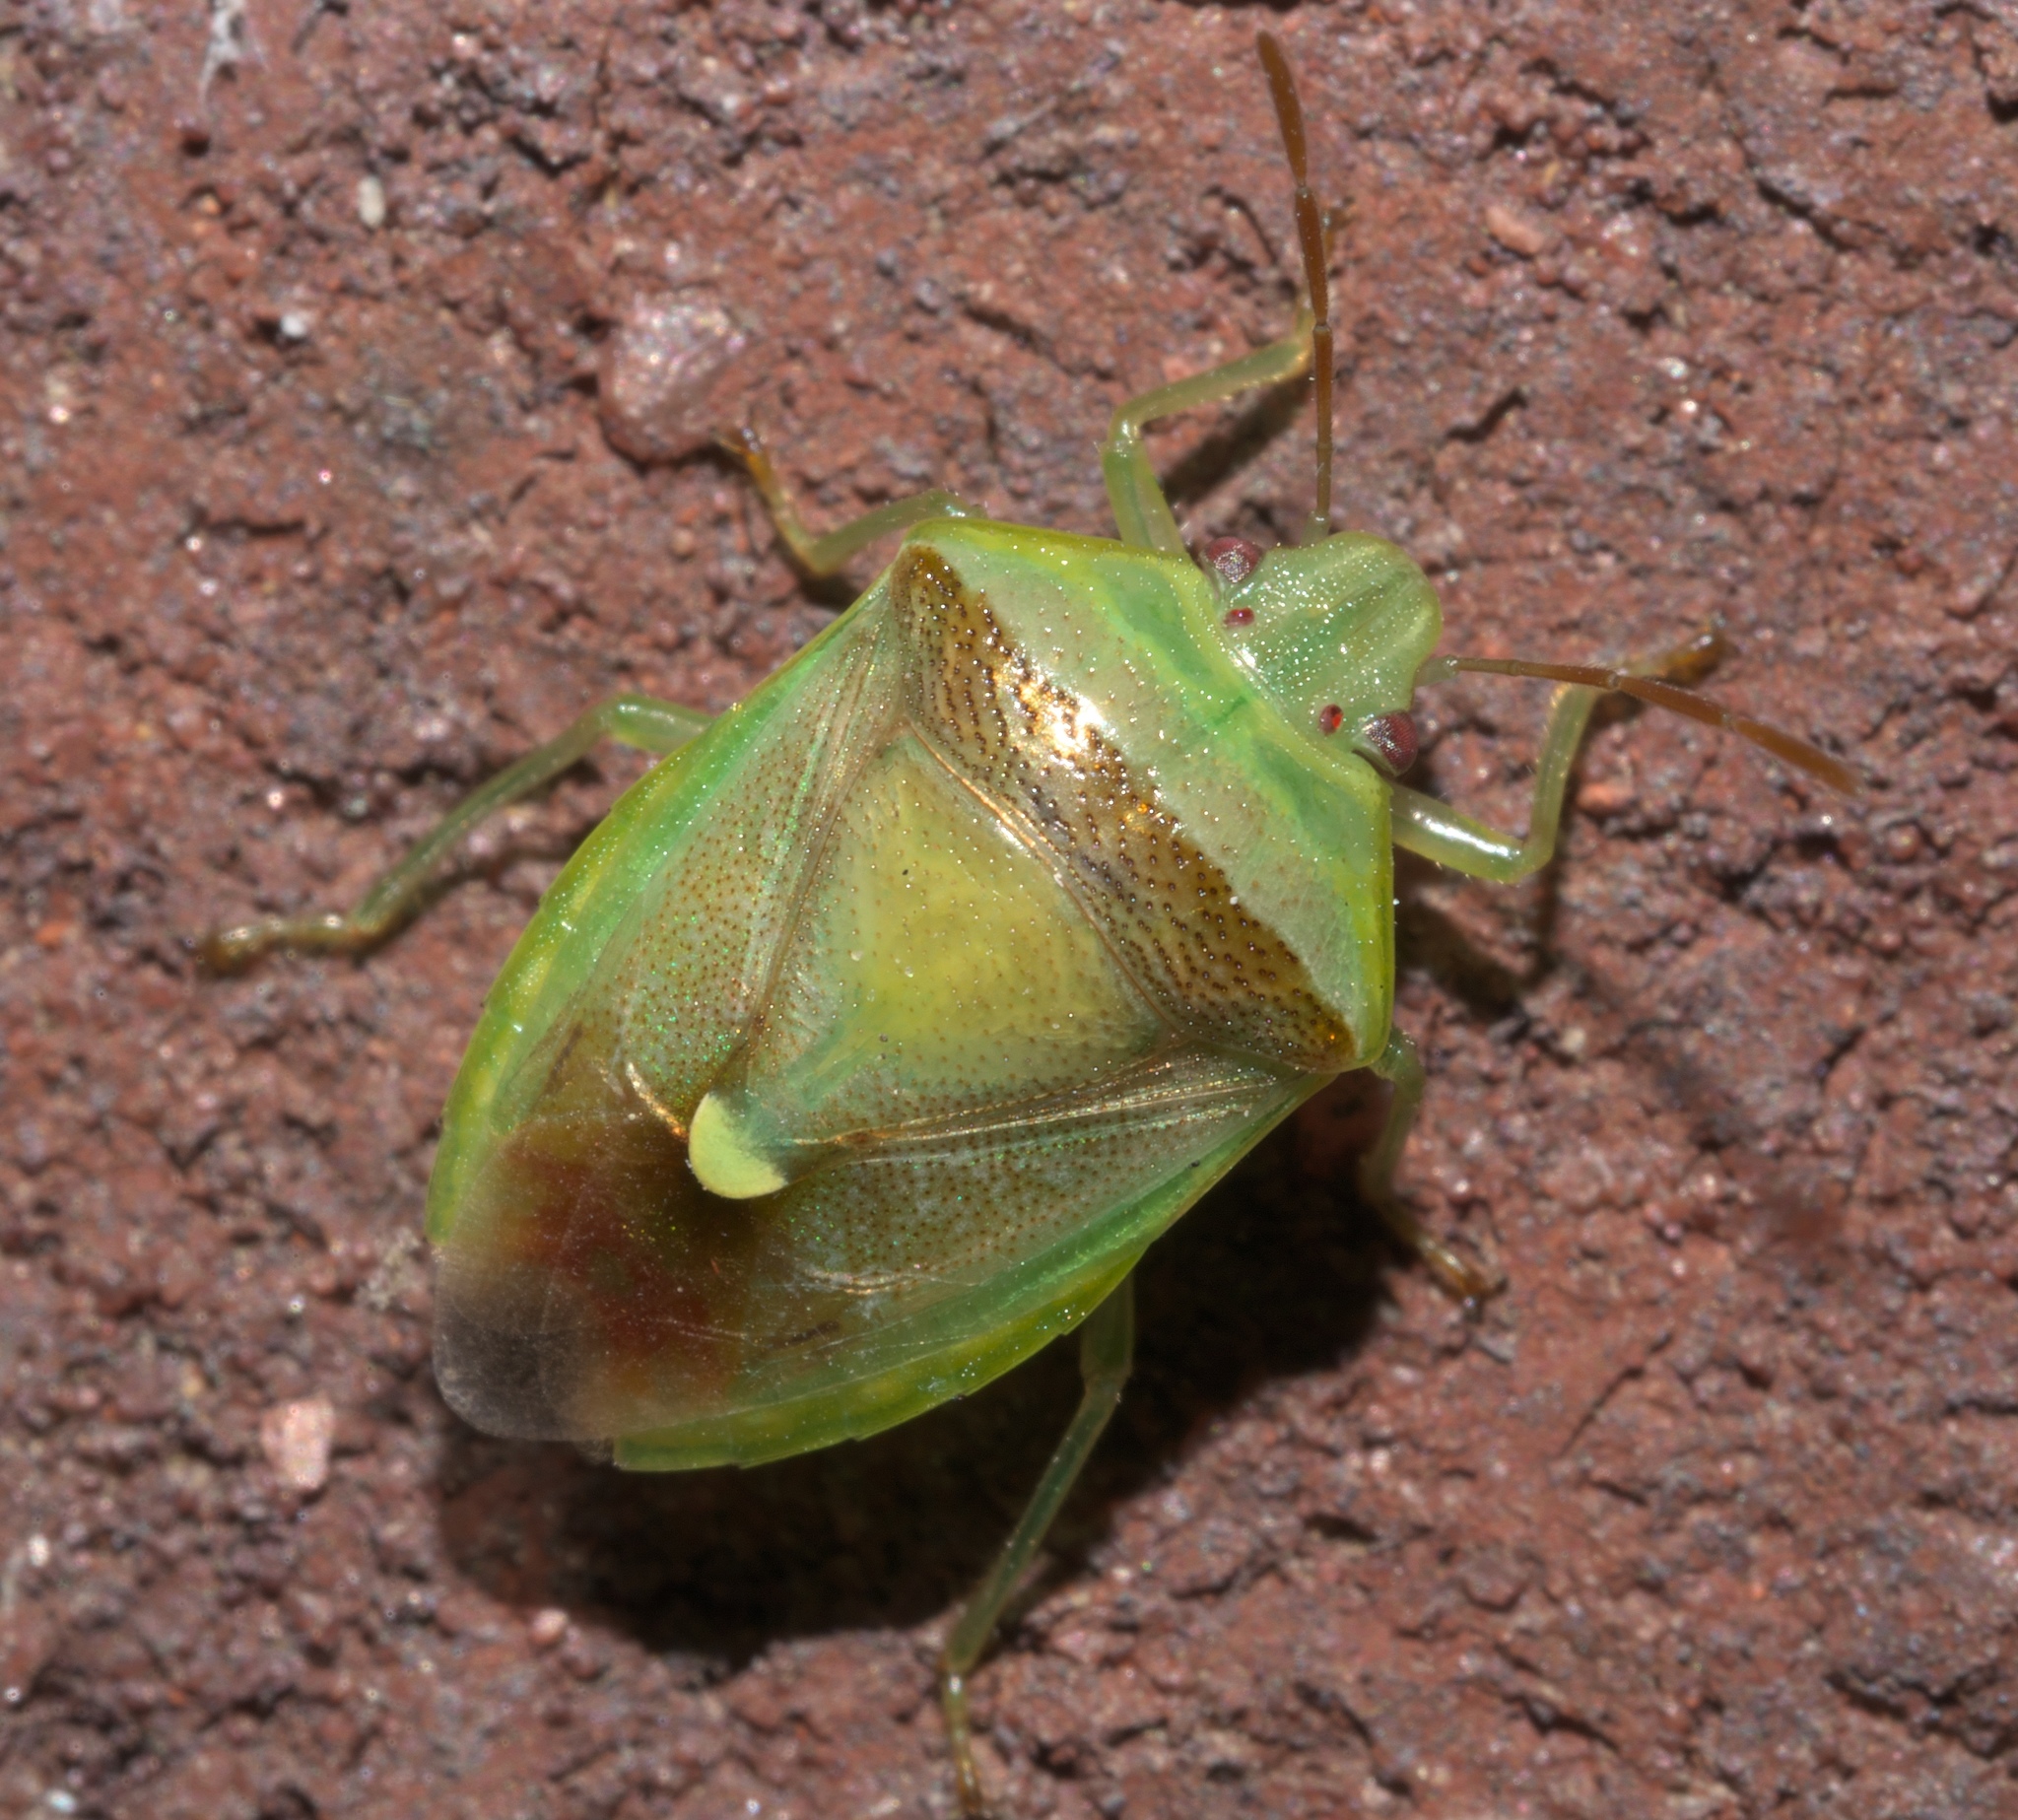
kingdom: Animalia
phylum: Arthropoda
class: Insecta
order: Hemiptera
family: Pentatomidae
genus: Banasa
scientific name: Banasa dimidiata
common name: Green burgundy stink bug
